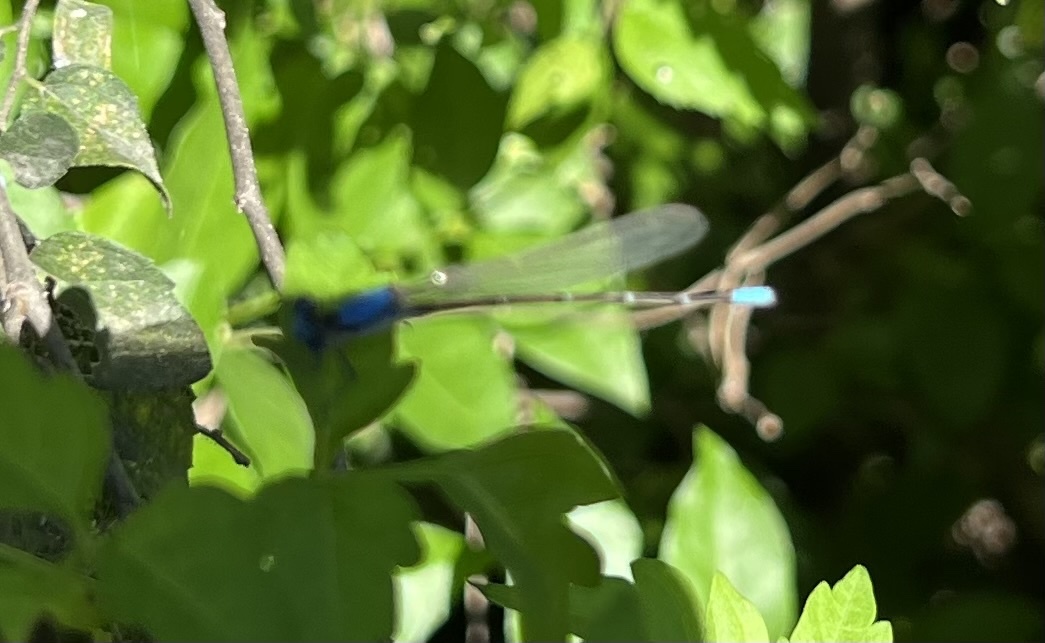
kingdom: Animalia
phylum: Arthropoda
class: Insecta
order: Odonata
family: Coenagrionidae
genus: Argia
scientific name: Argia apicalis
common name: Blue-fronted dancer
